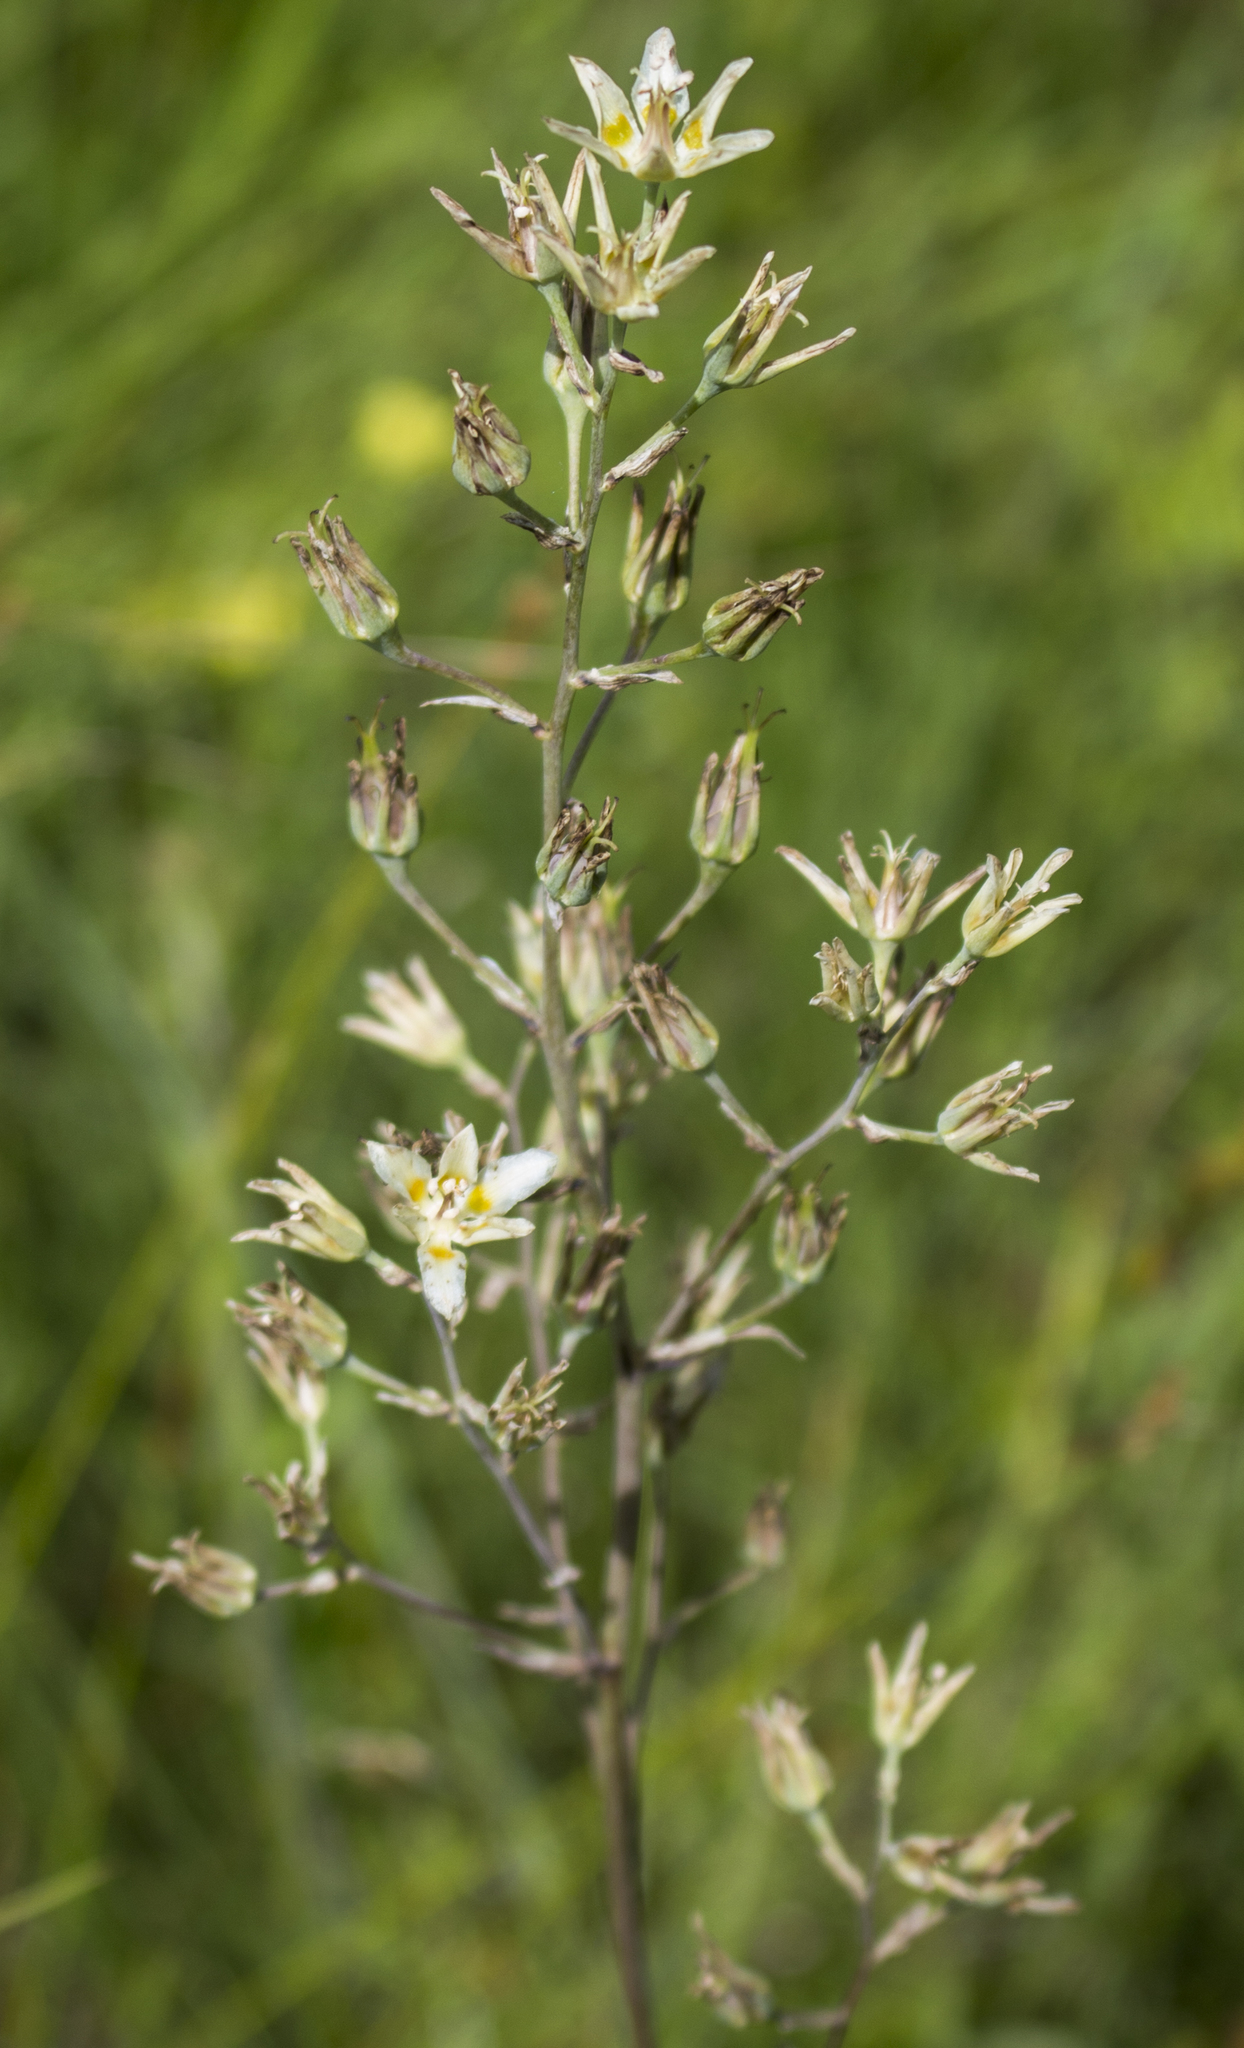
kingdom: Plantae
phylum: Tracheophyta
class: Liliopsida
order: Liliales
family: Melanthiaceae
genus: Anticlea
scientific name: Anticlea elegans
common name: Mountain death camas
